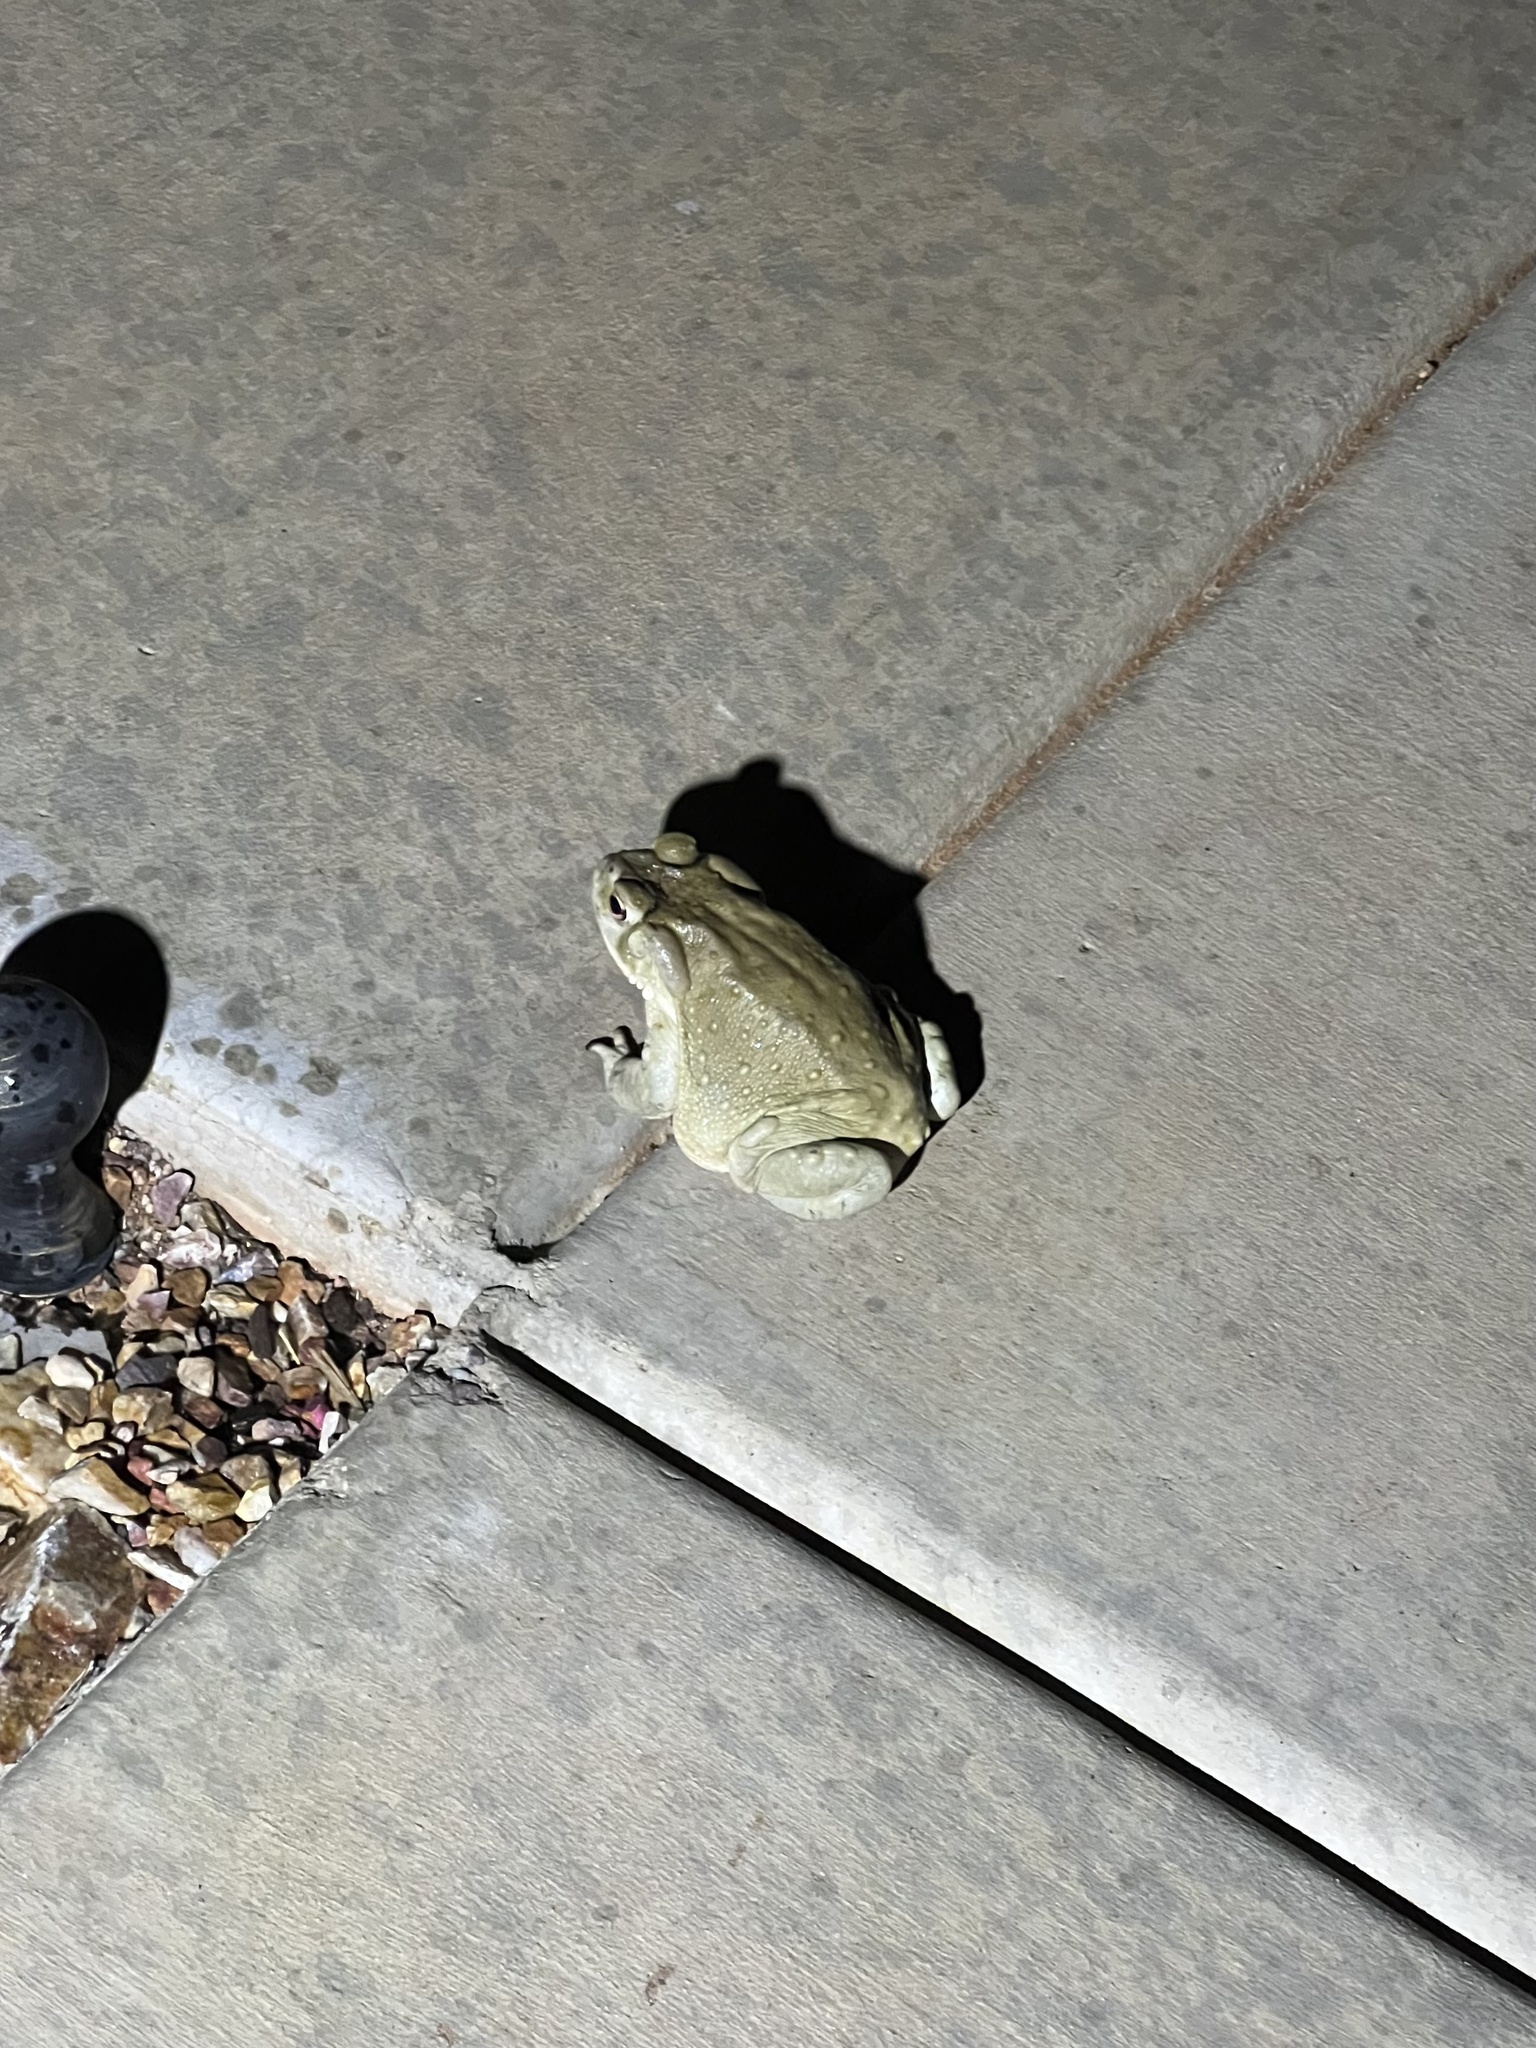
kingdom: Animalia
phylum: Chordata
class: Amphibia
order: Anura
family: Bufonidae
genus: Incilius
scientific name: Incilius alvarius
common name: Sonoran desert toad
